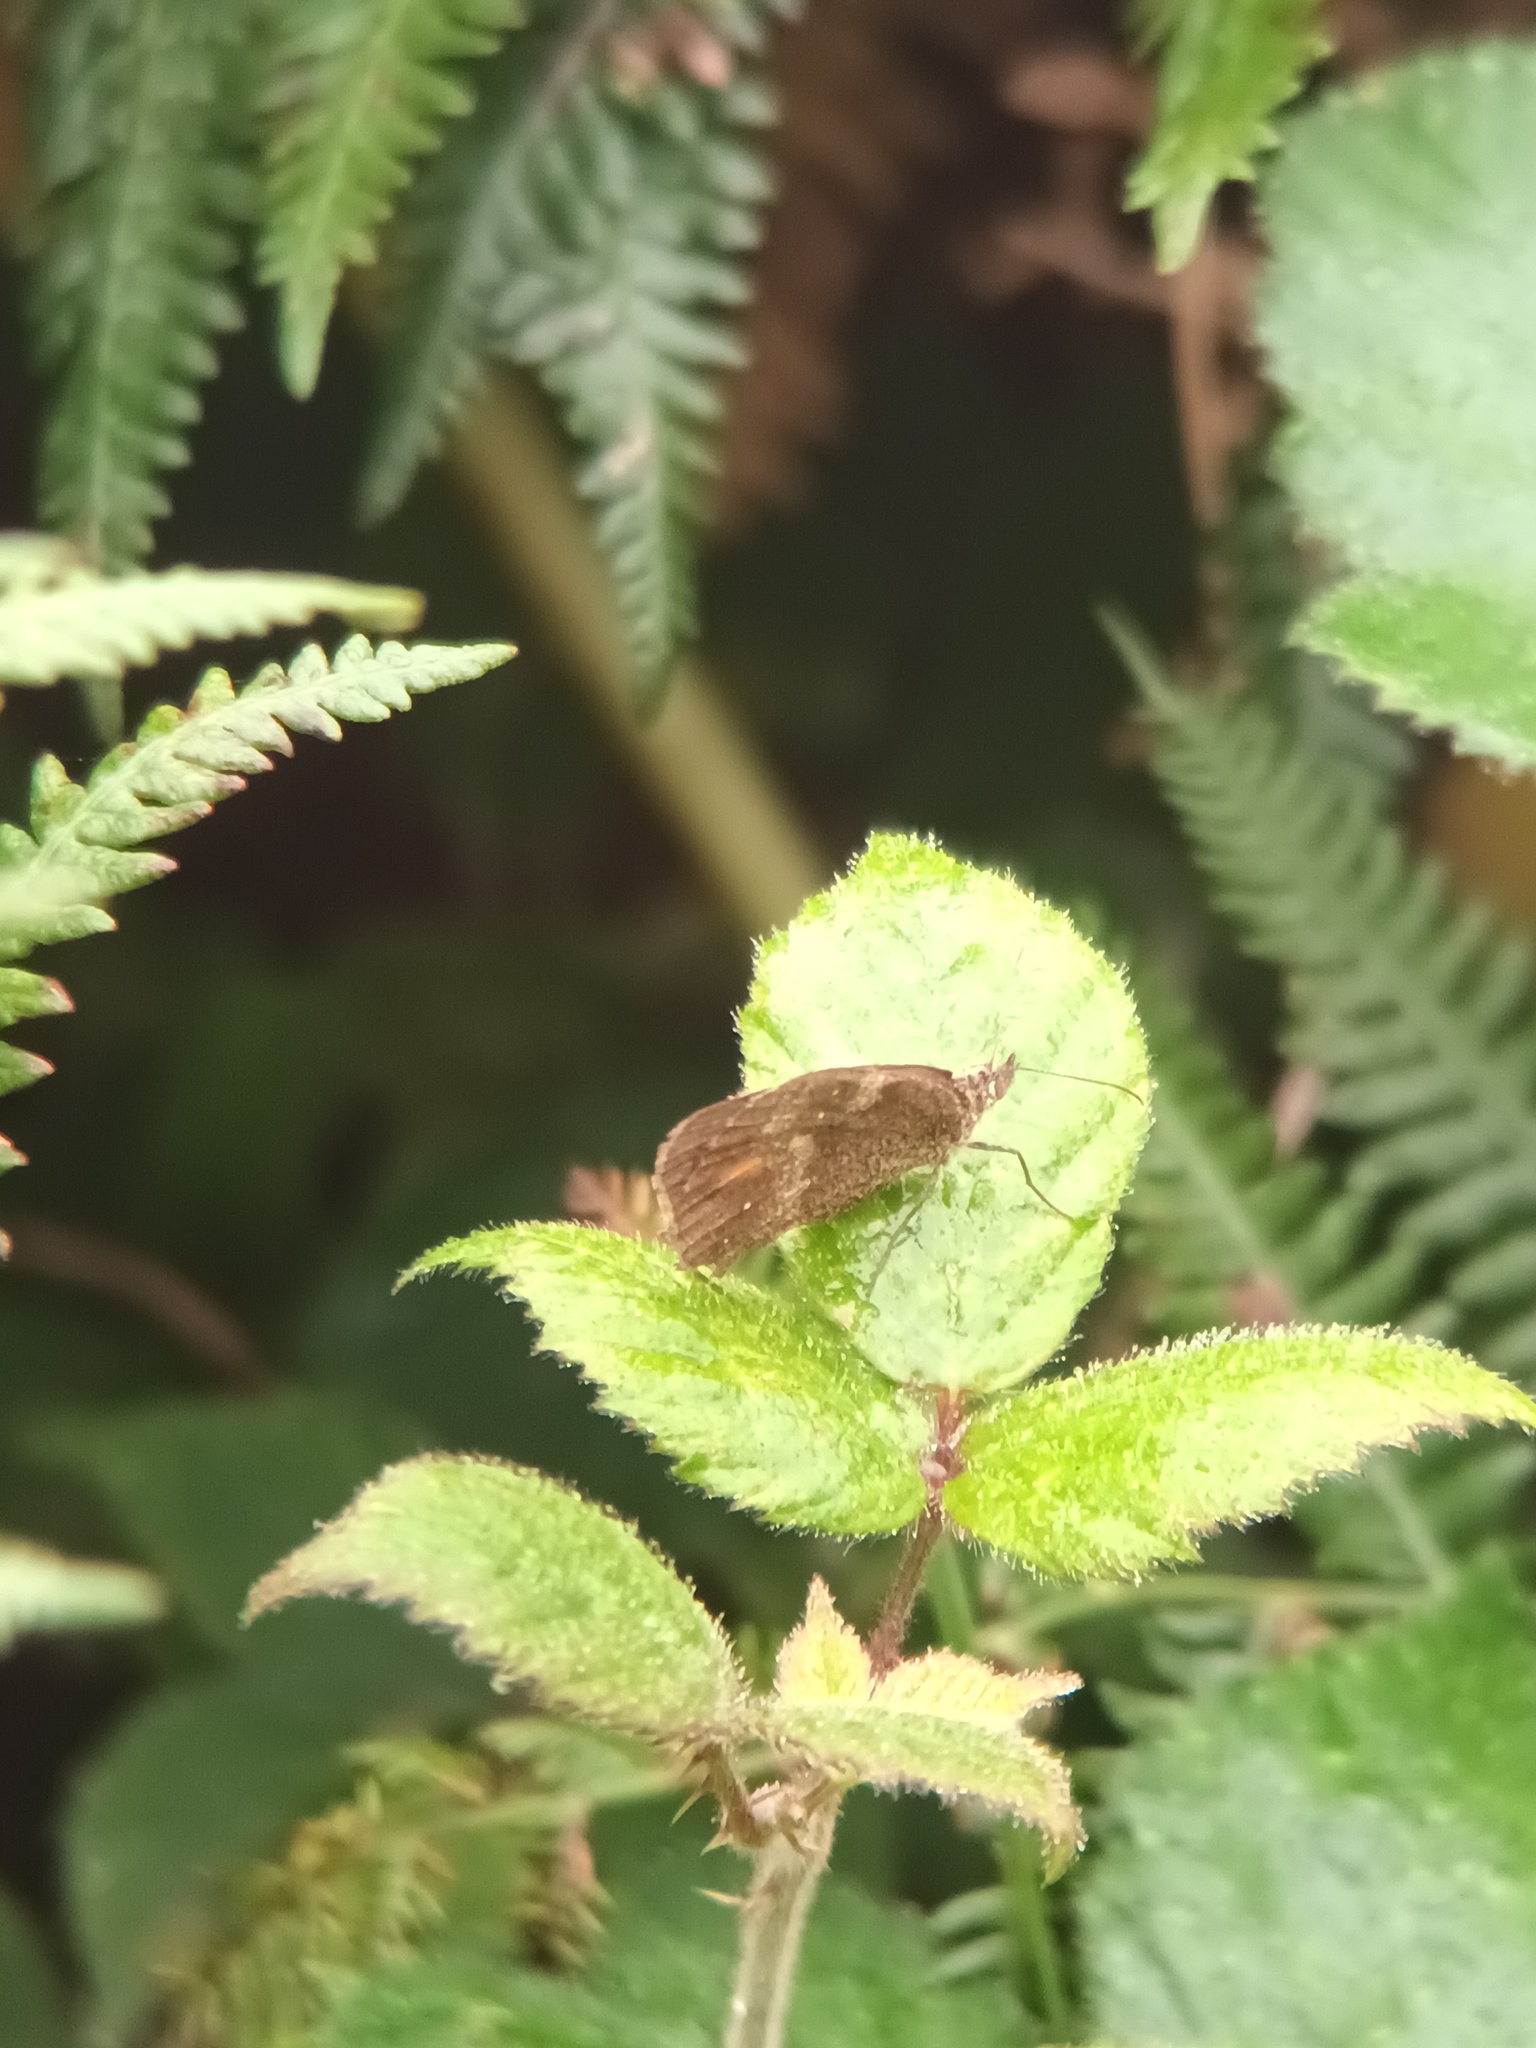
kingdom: Animalia
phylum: Arthropoda
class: Insecta
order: Lepidoptera
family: Nymphalidae
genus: Pyronia
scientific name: Pyronia tithonus
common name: Gatekeeper
